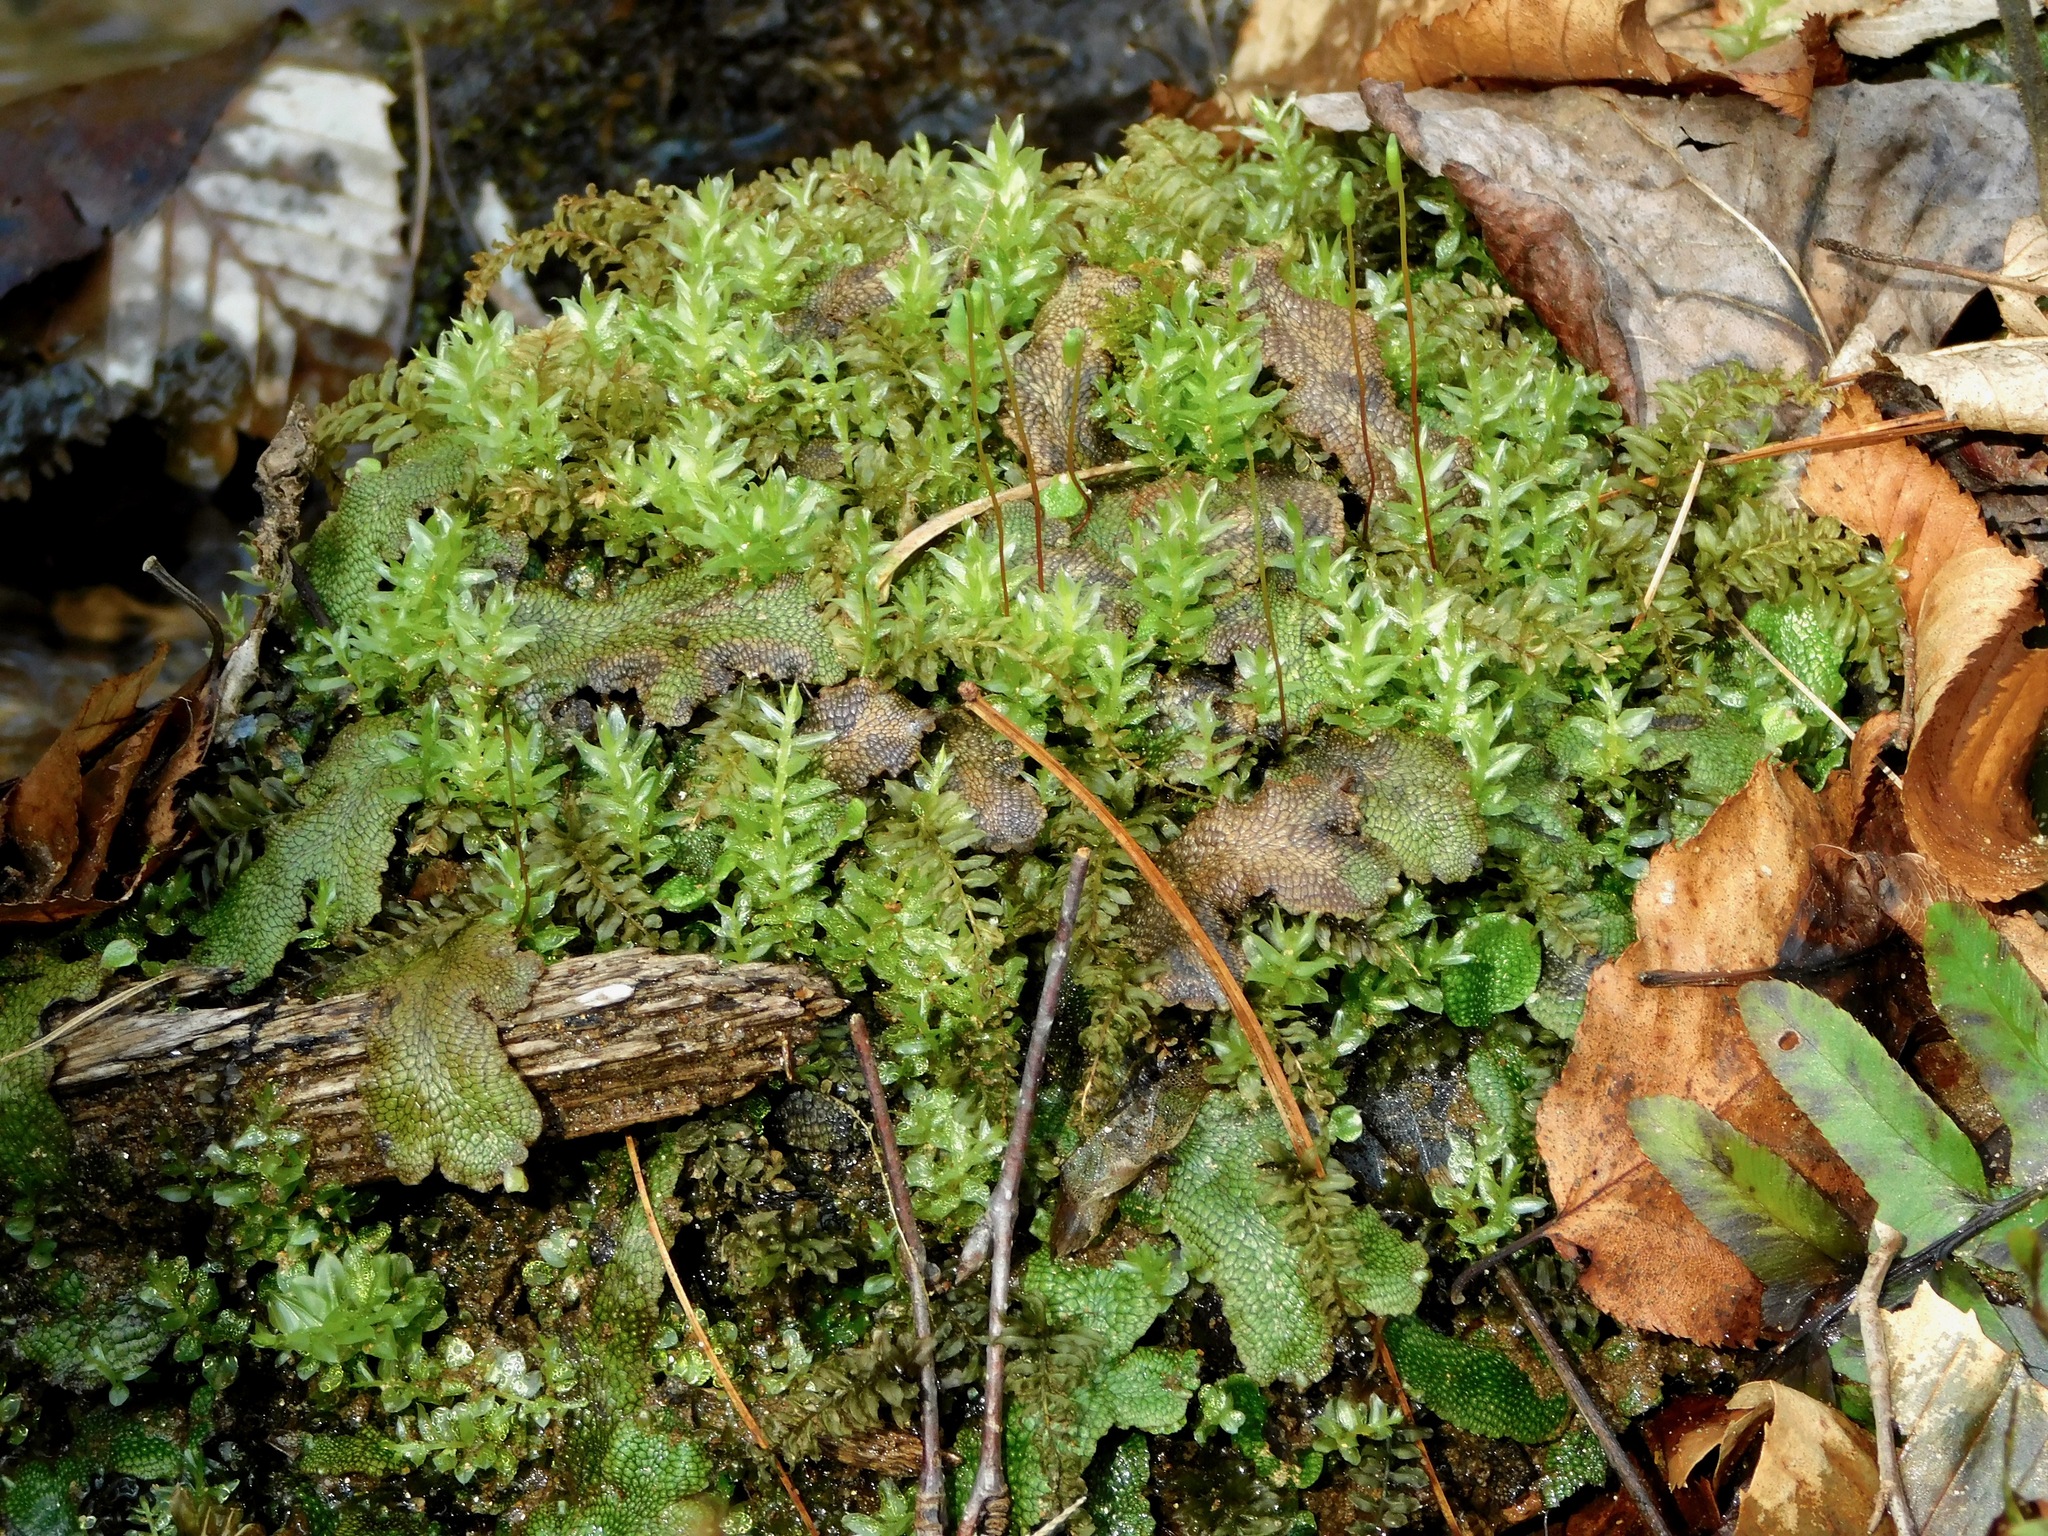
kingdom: Plantae
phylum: Marchantiophyta
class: Marchantiopsida
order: Marchantiales
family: Conocephalaceae
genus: Conocephalum
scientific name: Conocephalum salebrosum
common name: Cat-tongue liverwort
